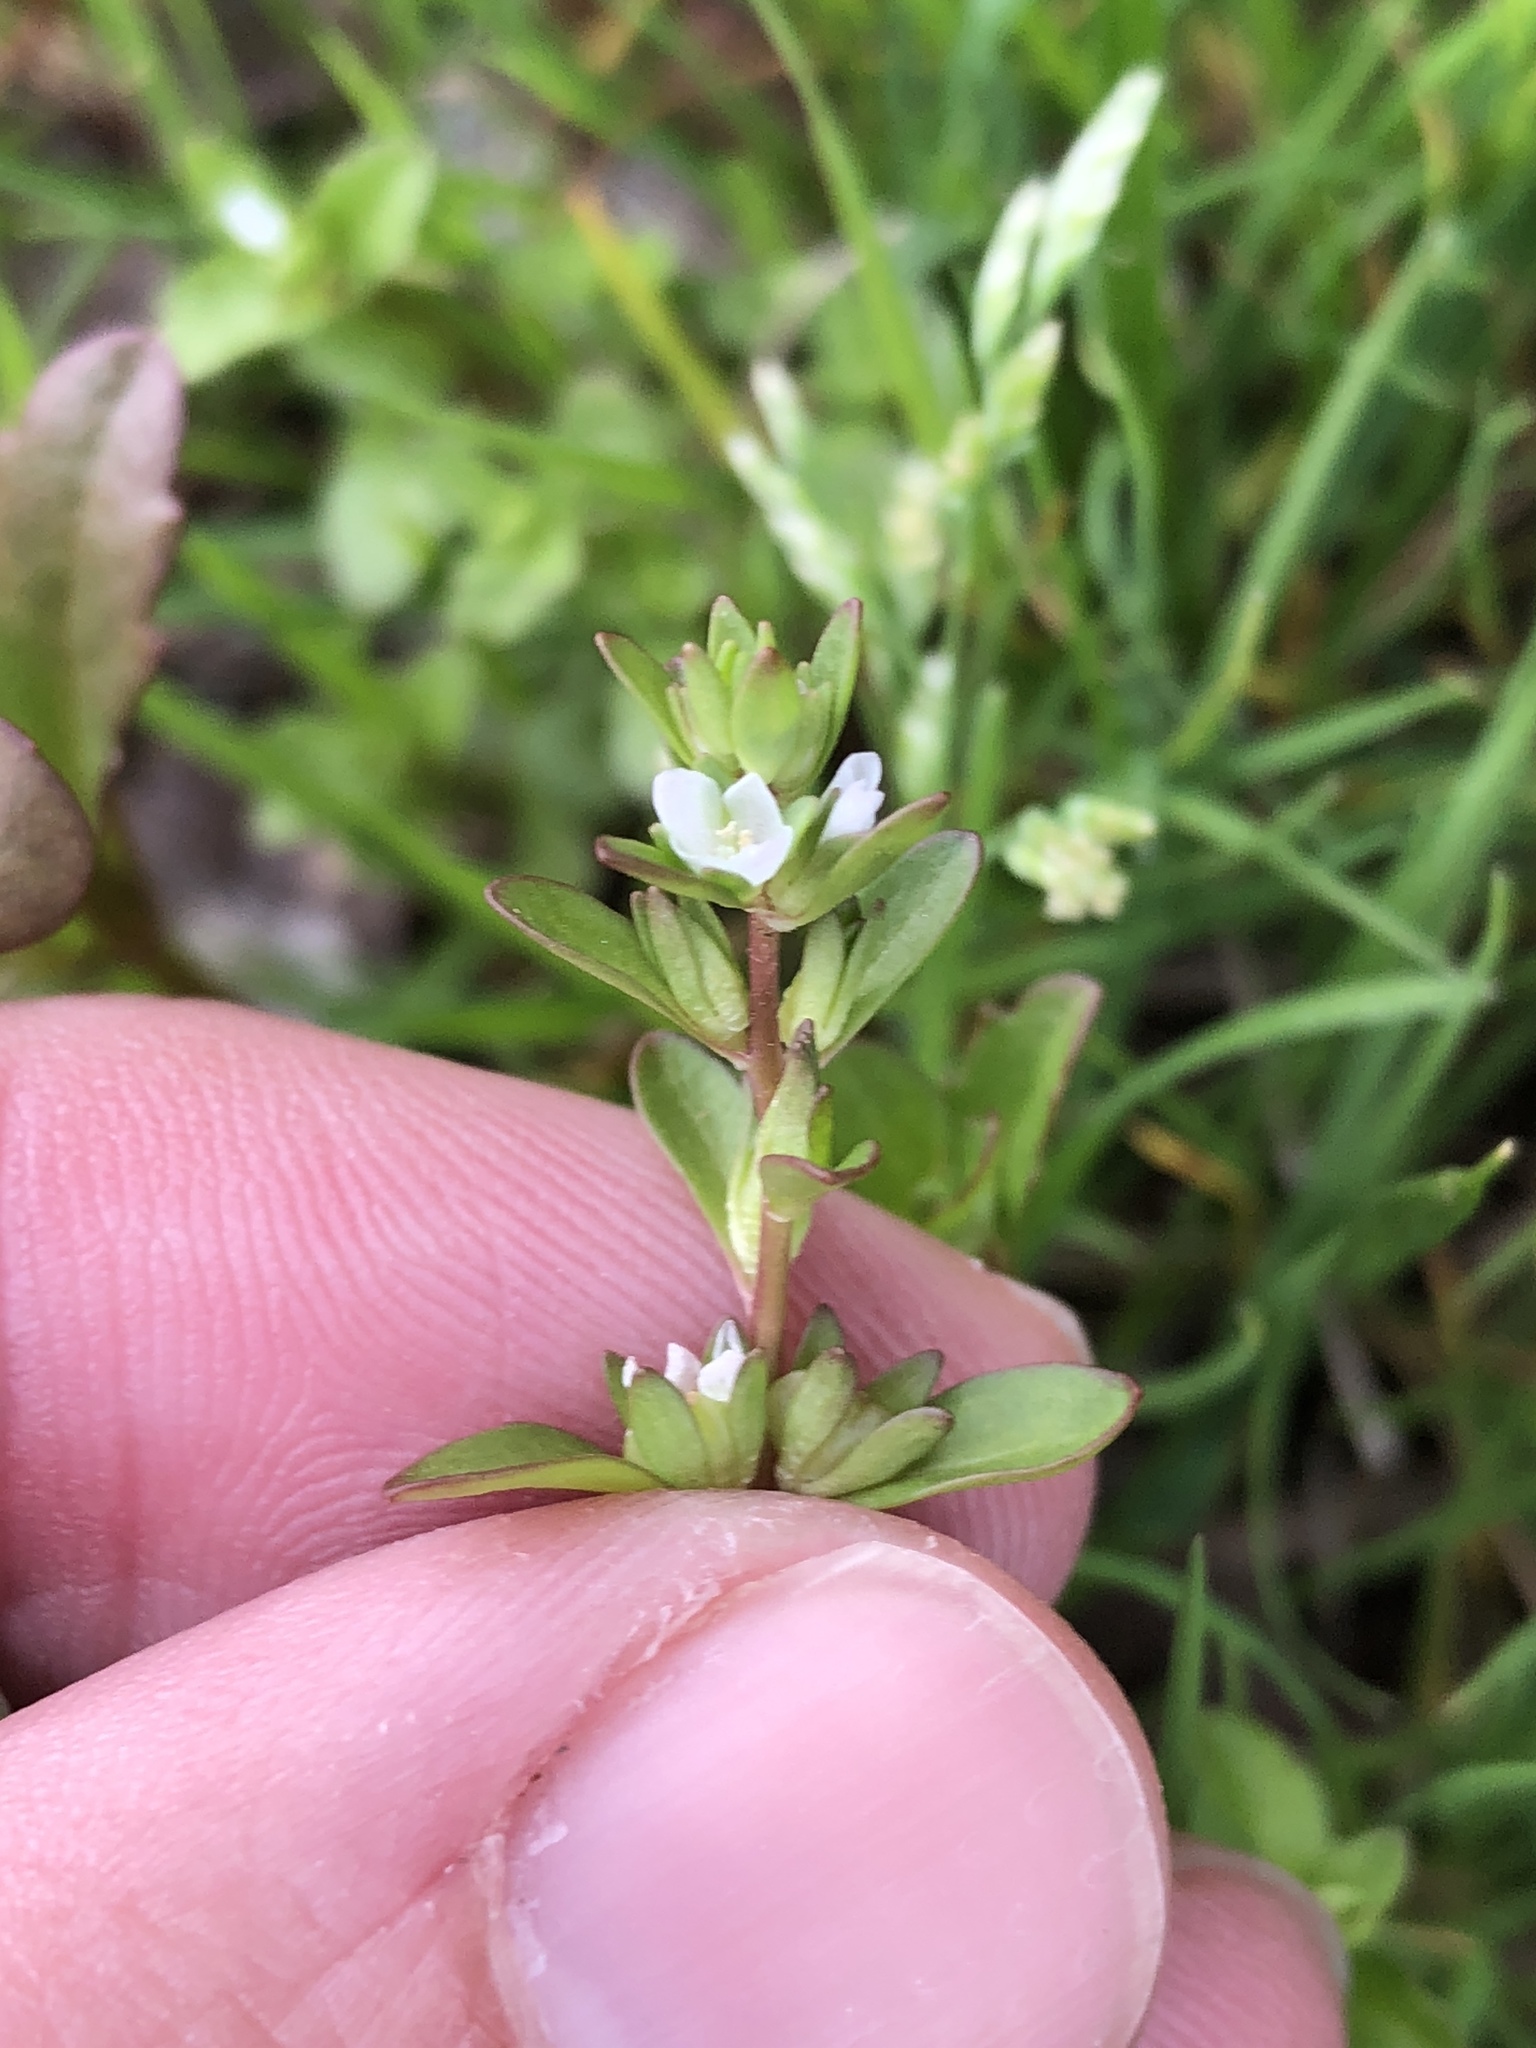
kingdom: Plantae
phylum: Tracheophyta
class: Magnoliopsida
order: Lamiales
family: Plantaginaceae
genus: Veronica
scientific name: Veronica peregrina
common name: Neckweed
